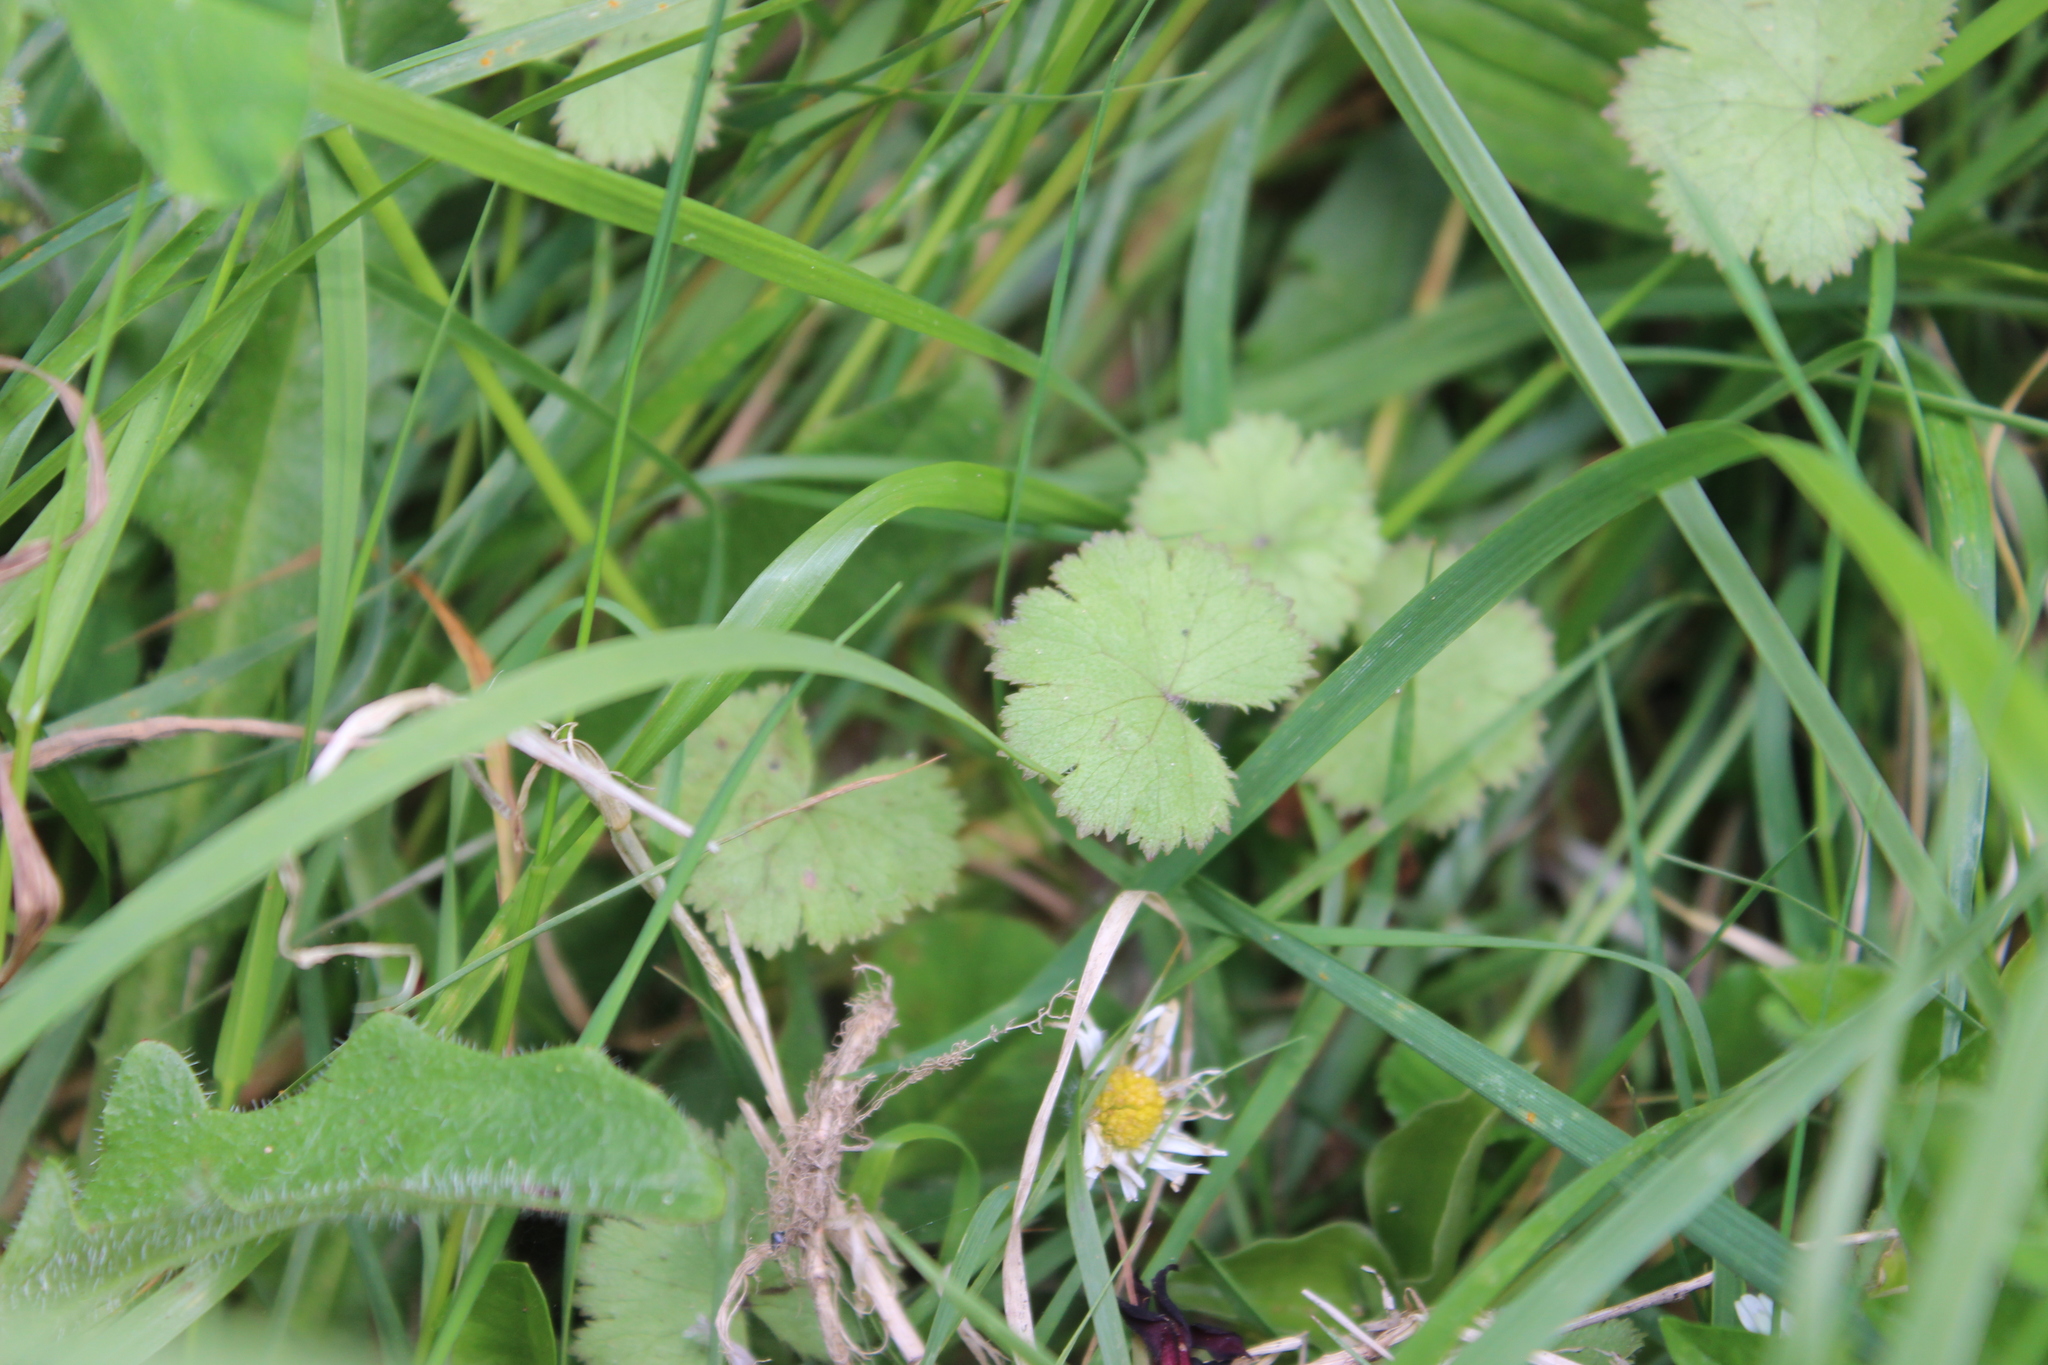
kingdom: Plantae
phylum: Tracheophyta
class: Magnoliopsida
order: Apiales
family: Araliaceae
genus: Hydrocotyle
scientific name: Hydrocotyle moschata
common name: Hairy pennywort
